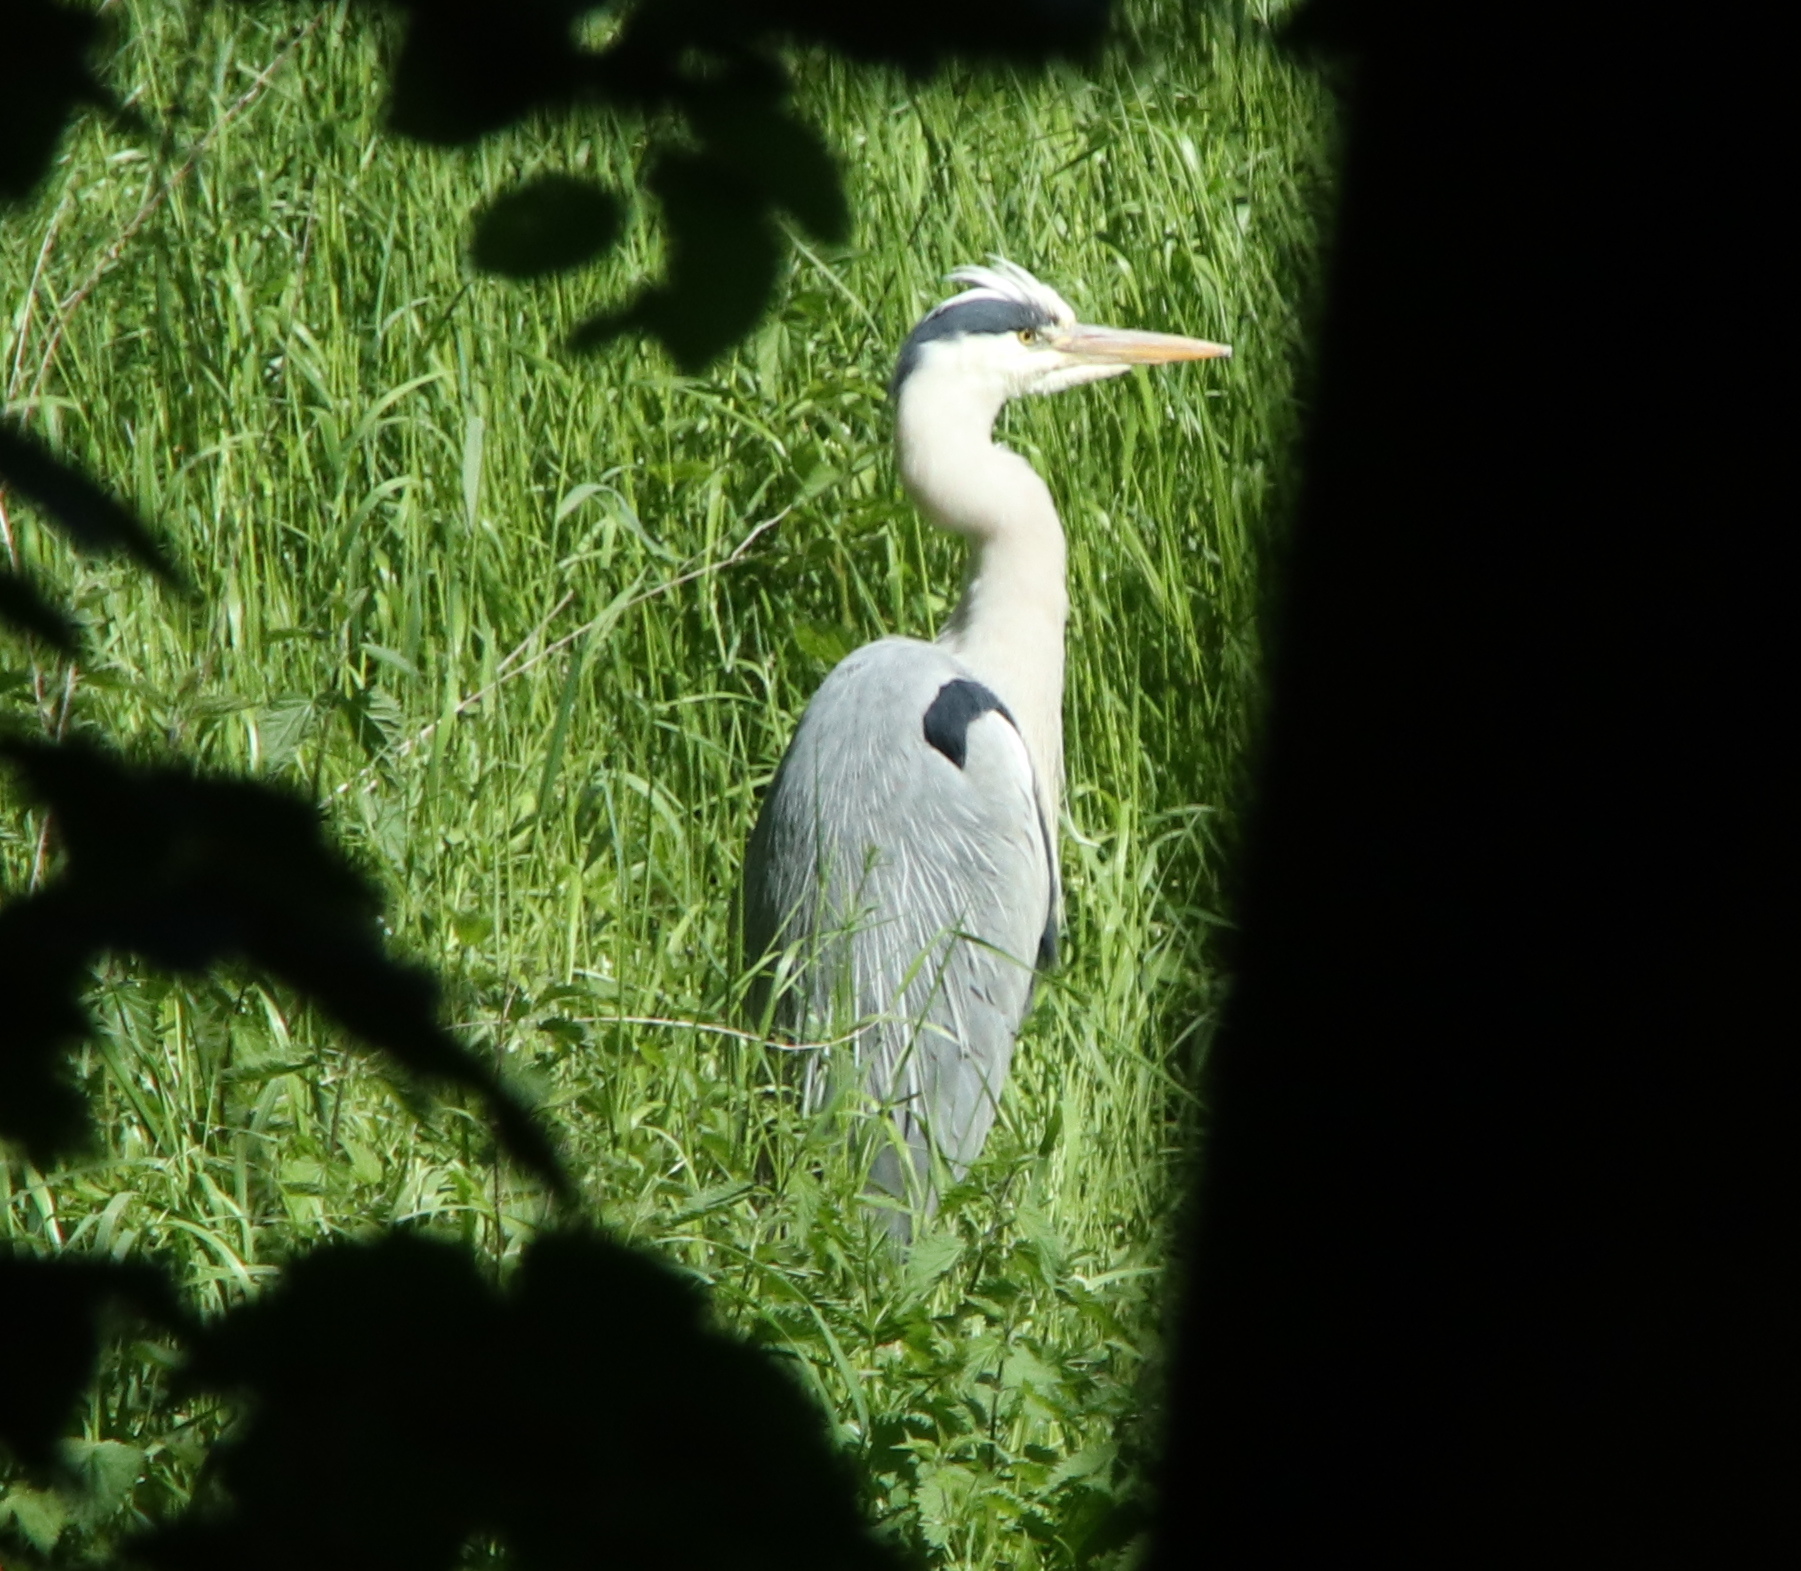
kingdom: Animalia
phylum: Chordata
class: Aves
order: Pelecaniformes
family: Ardeidae
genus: Ardea
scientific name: Ardea cinerea
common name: Grey heron
